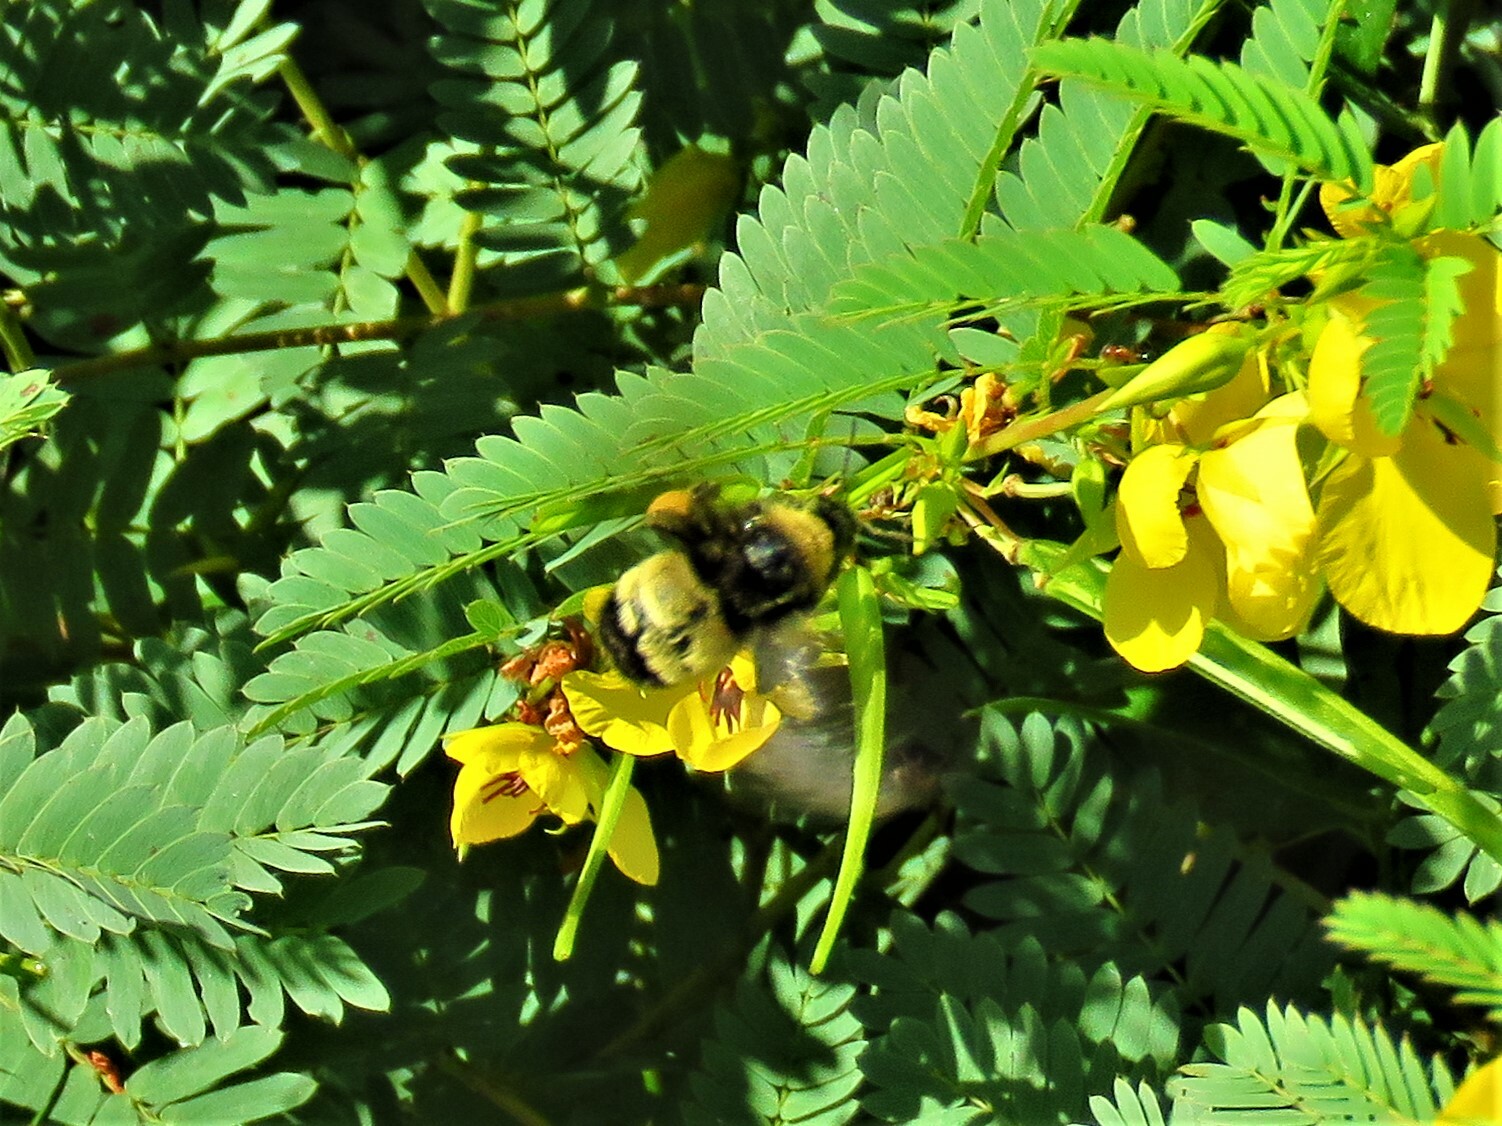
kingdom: Animalia
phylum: Arthropoda
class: Insecta
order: Hymenoptera
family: Apidae
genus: Bombus
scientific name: Bombus pensylvanicus
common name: Bumble bee
